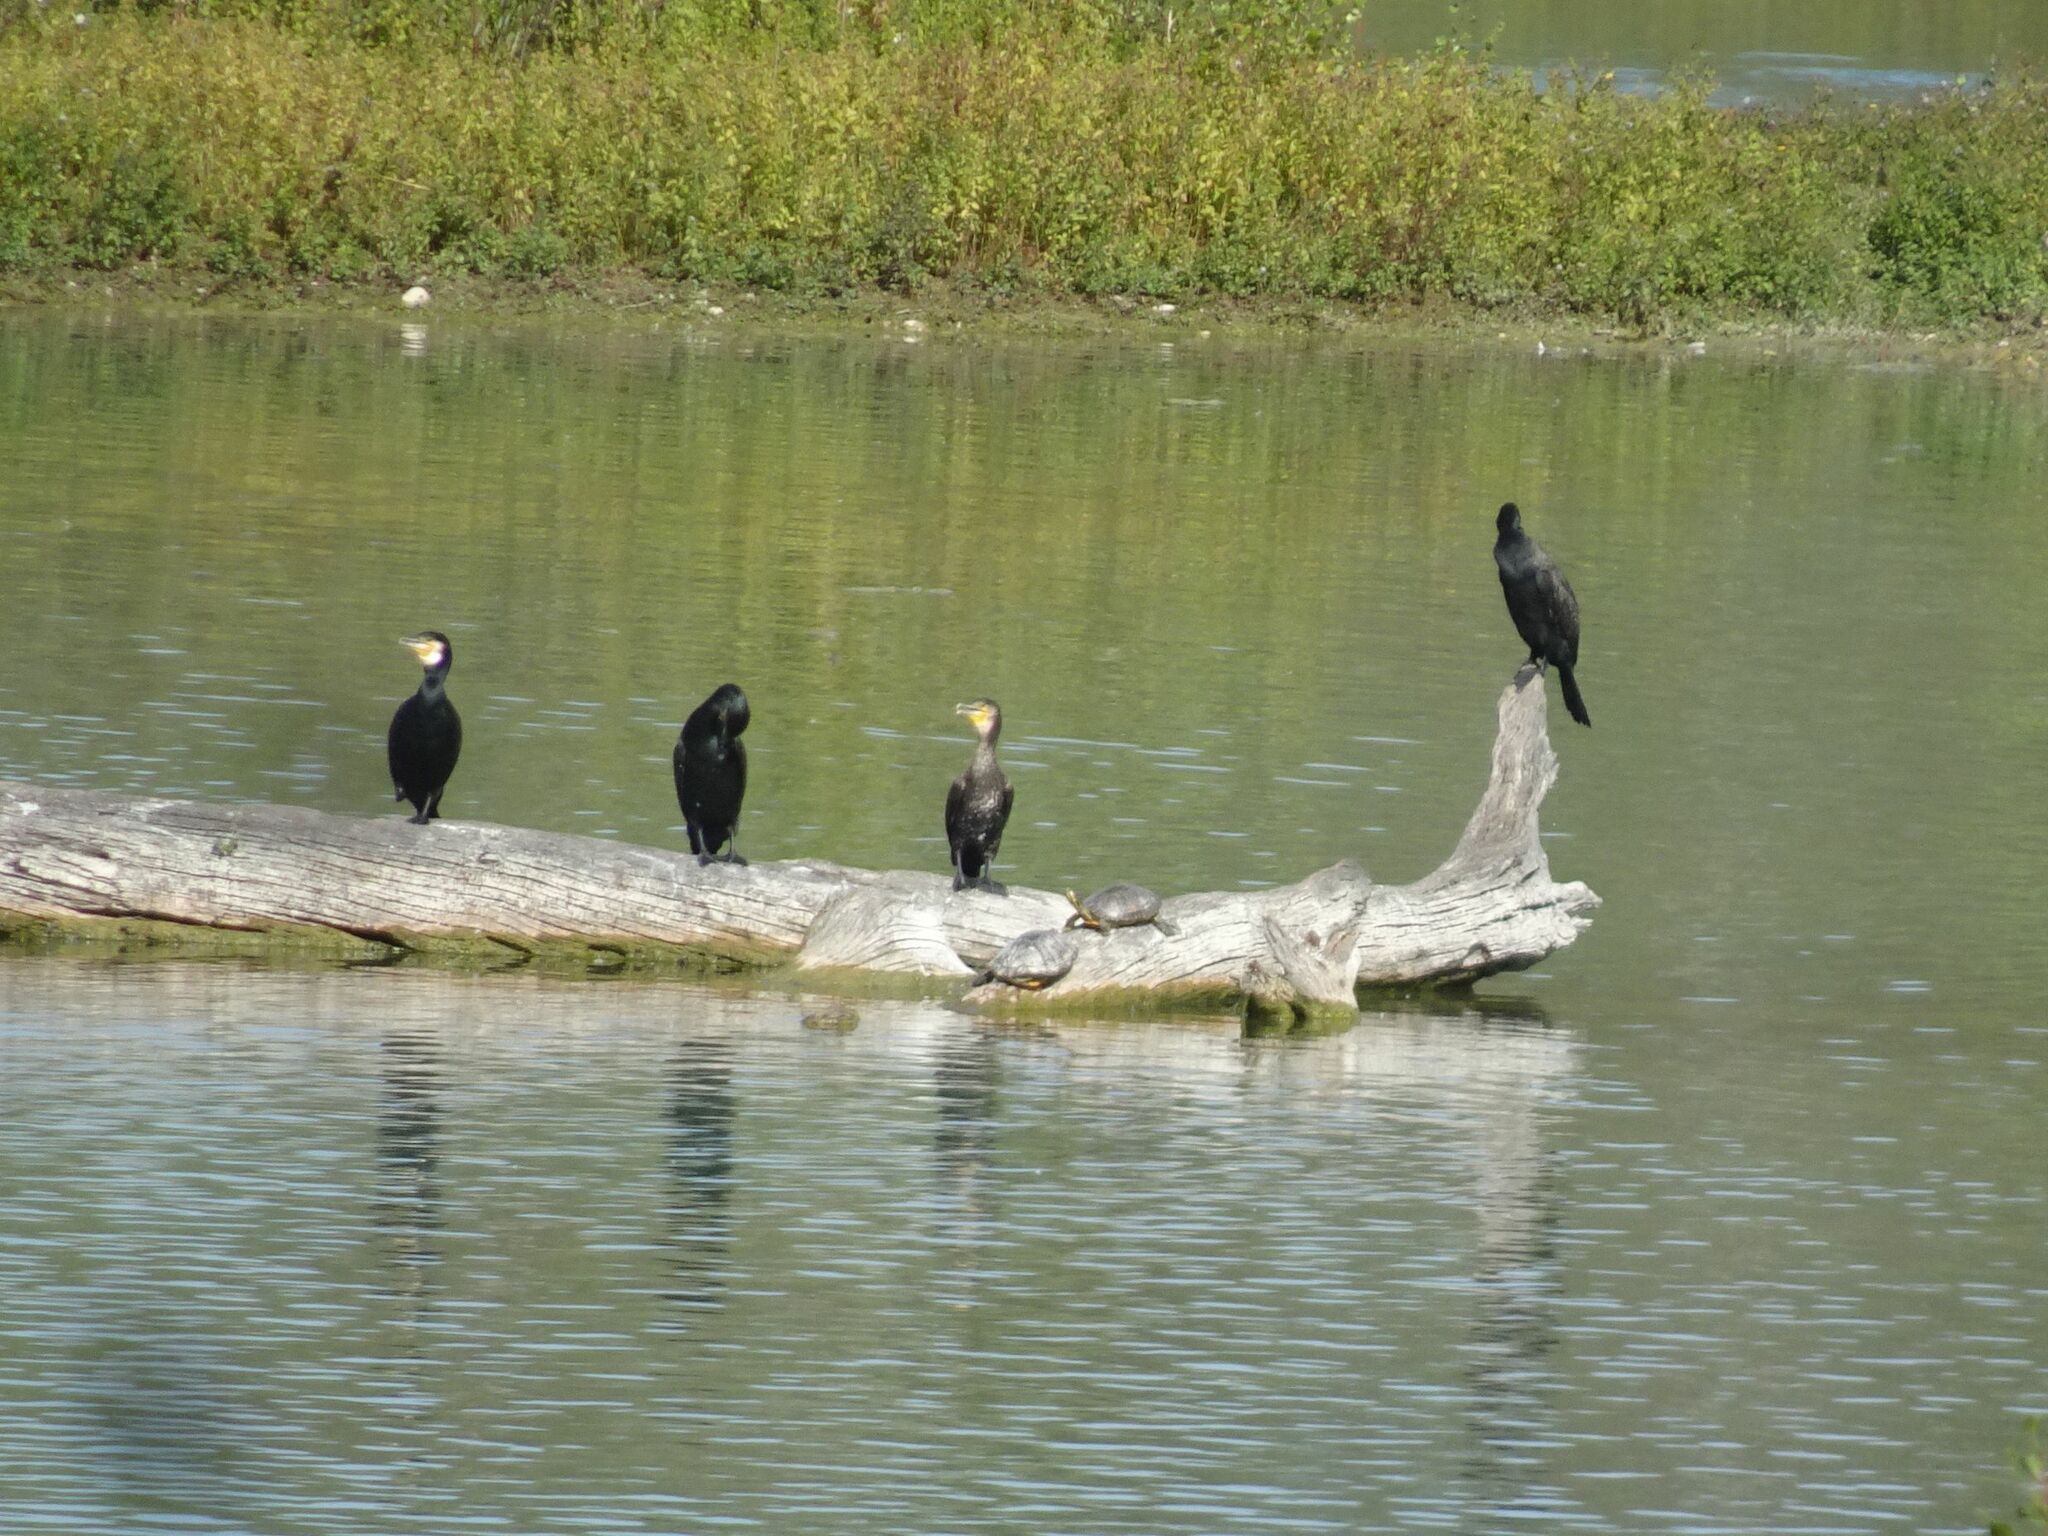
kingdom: Animalia
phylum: Chordata
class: Testudines
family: Emydidae
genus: Trachemys
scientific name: Trachemys scripta
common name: Slider
